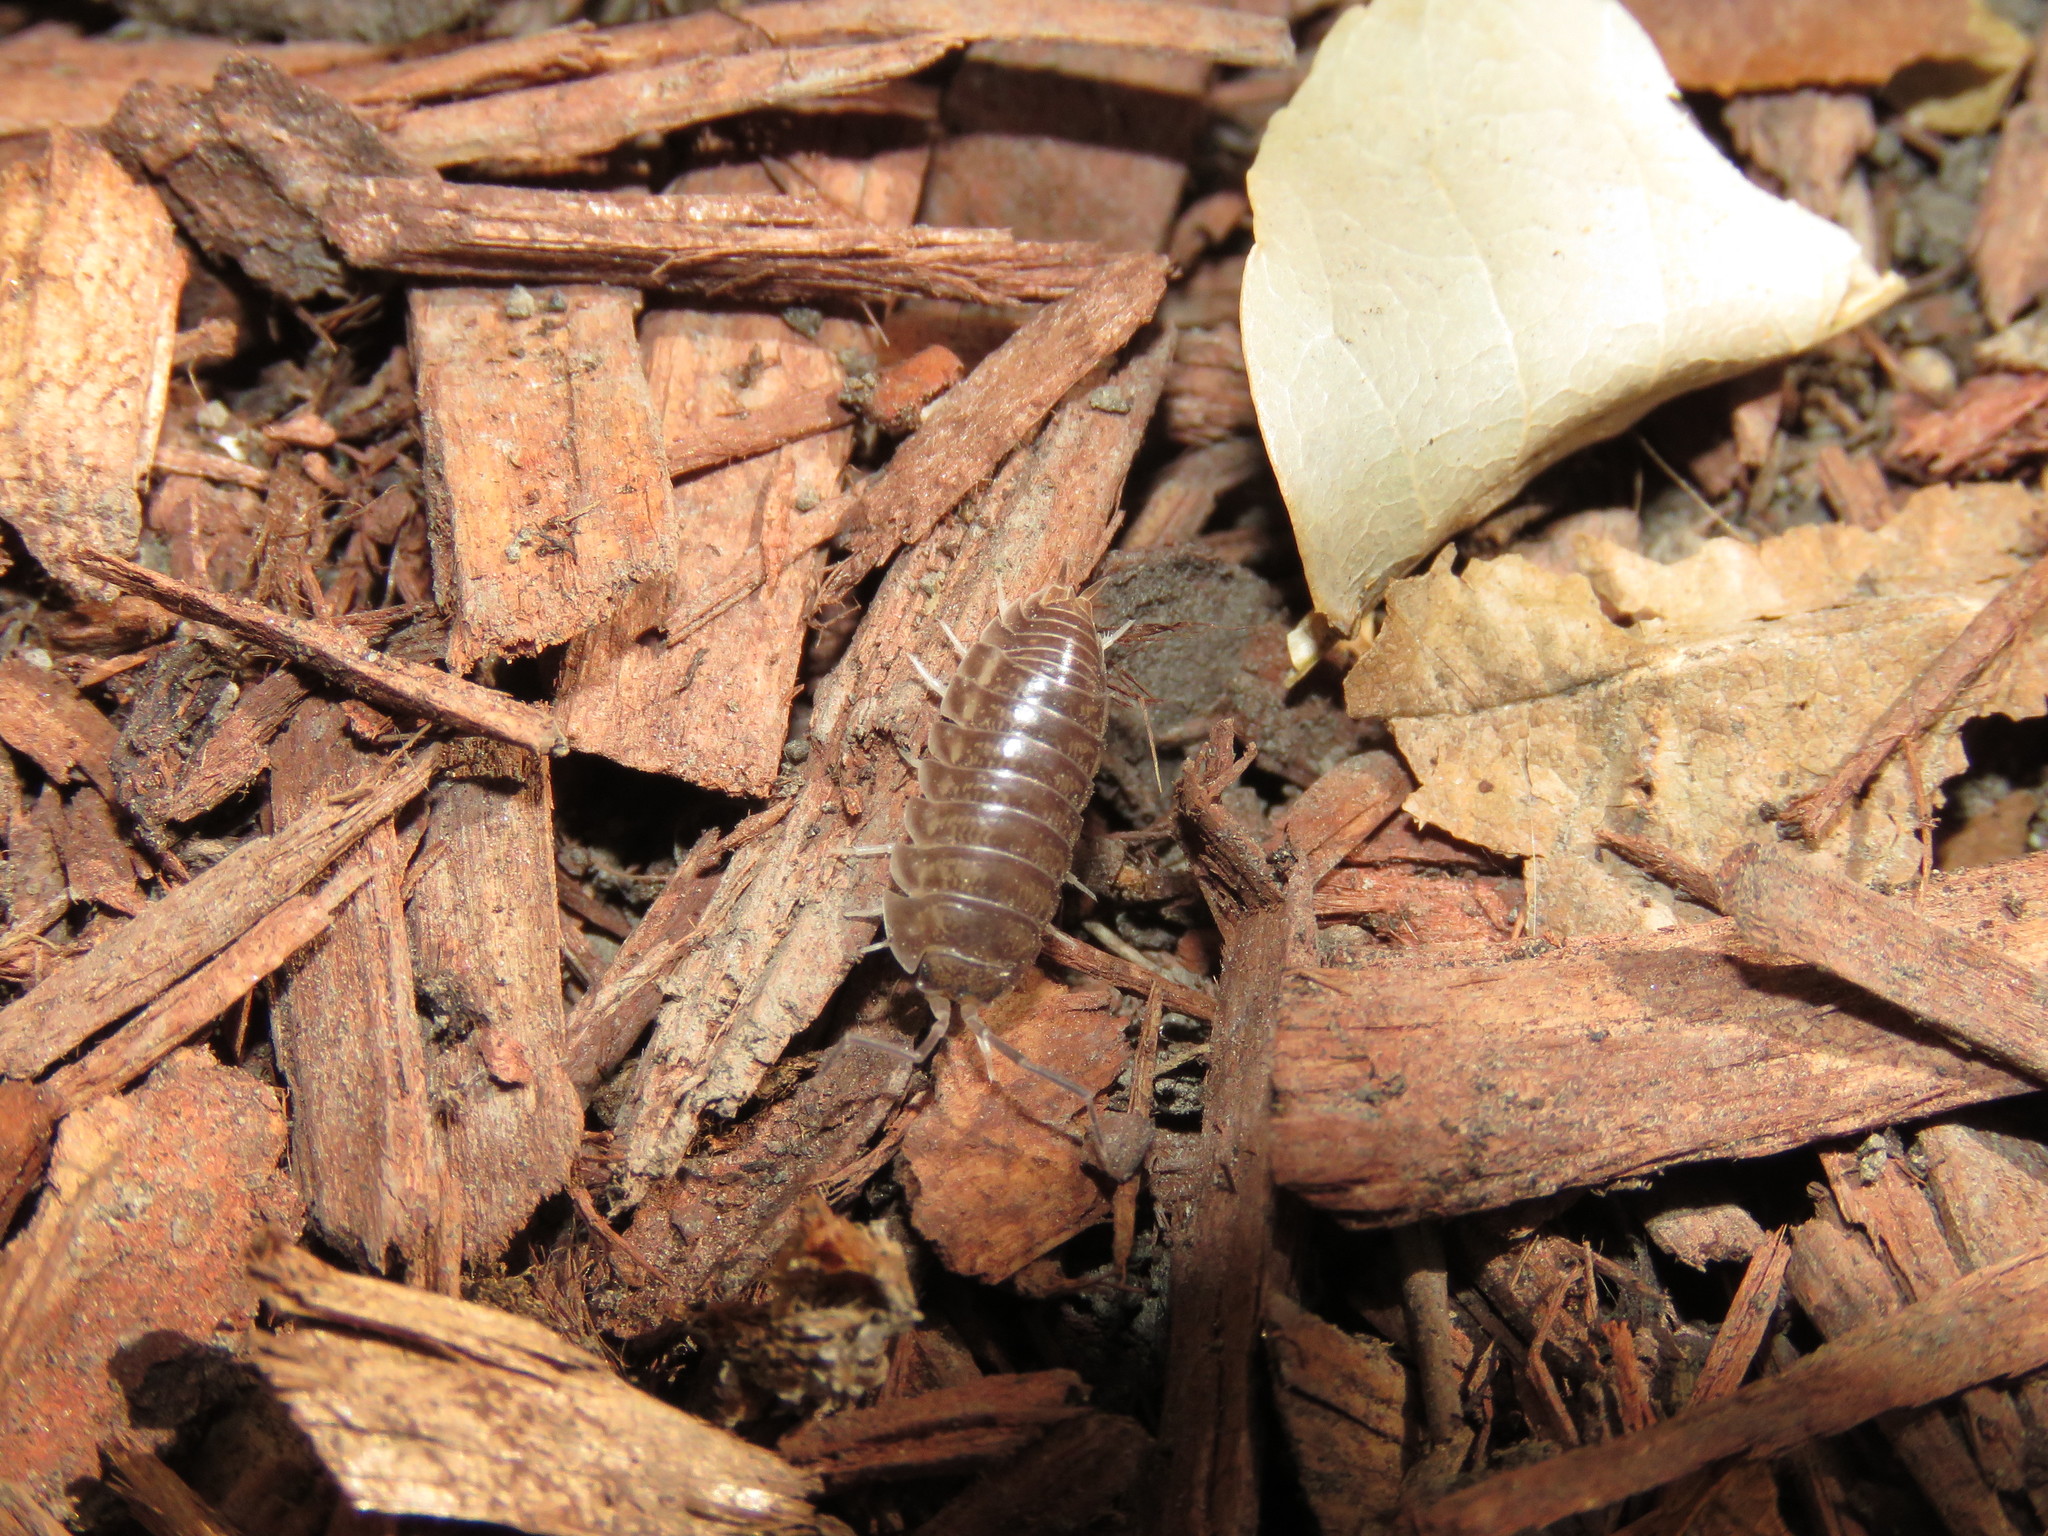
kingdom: Animalia
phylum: Arthropoda
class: Malacostraca
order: Isopoda
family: Cylisticidae
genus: Cylisticus
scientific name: Cylisticus convexus
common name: Curly woodlouse
